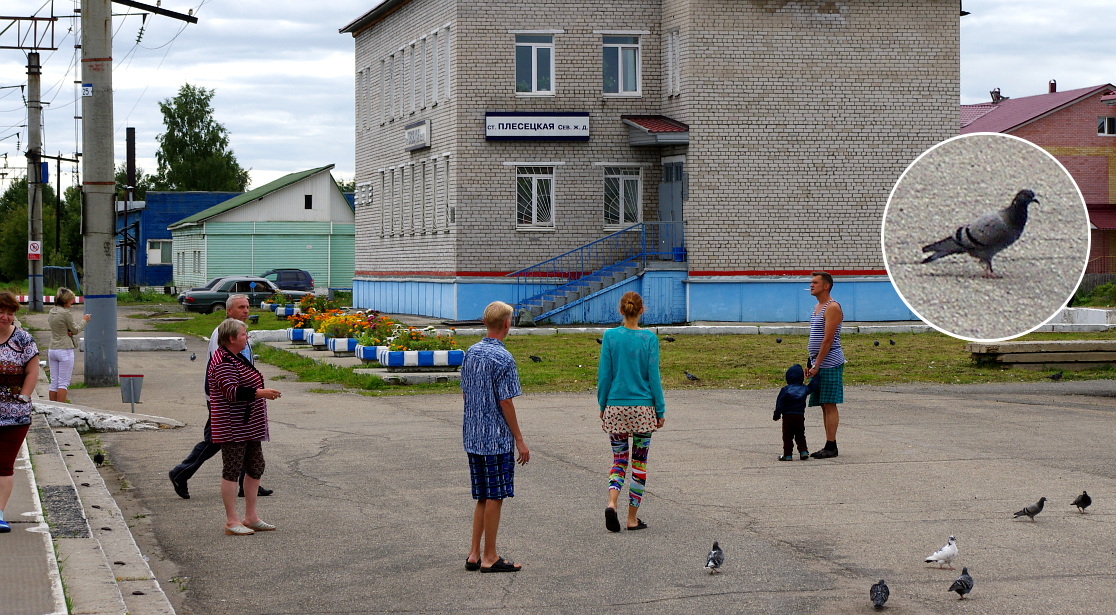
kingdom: Animalia
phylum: Chordata
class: Aves
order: Columbiformes
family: Columbidae
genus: Columba
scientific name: Columba livia
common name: Rock pigeon
